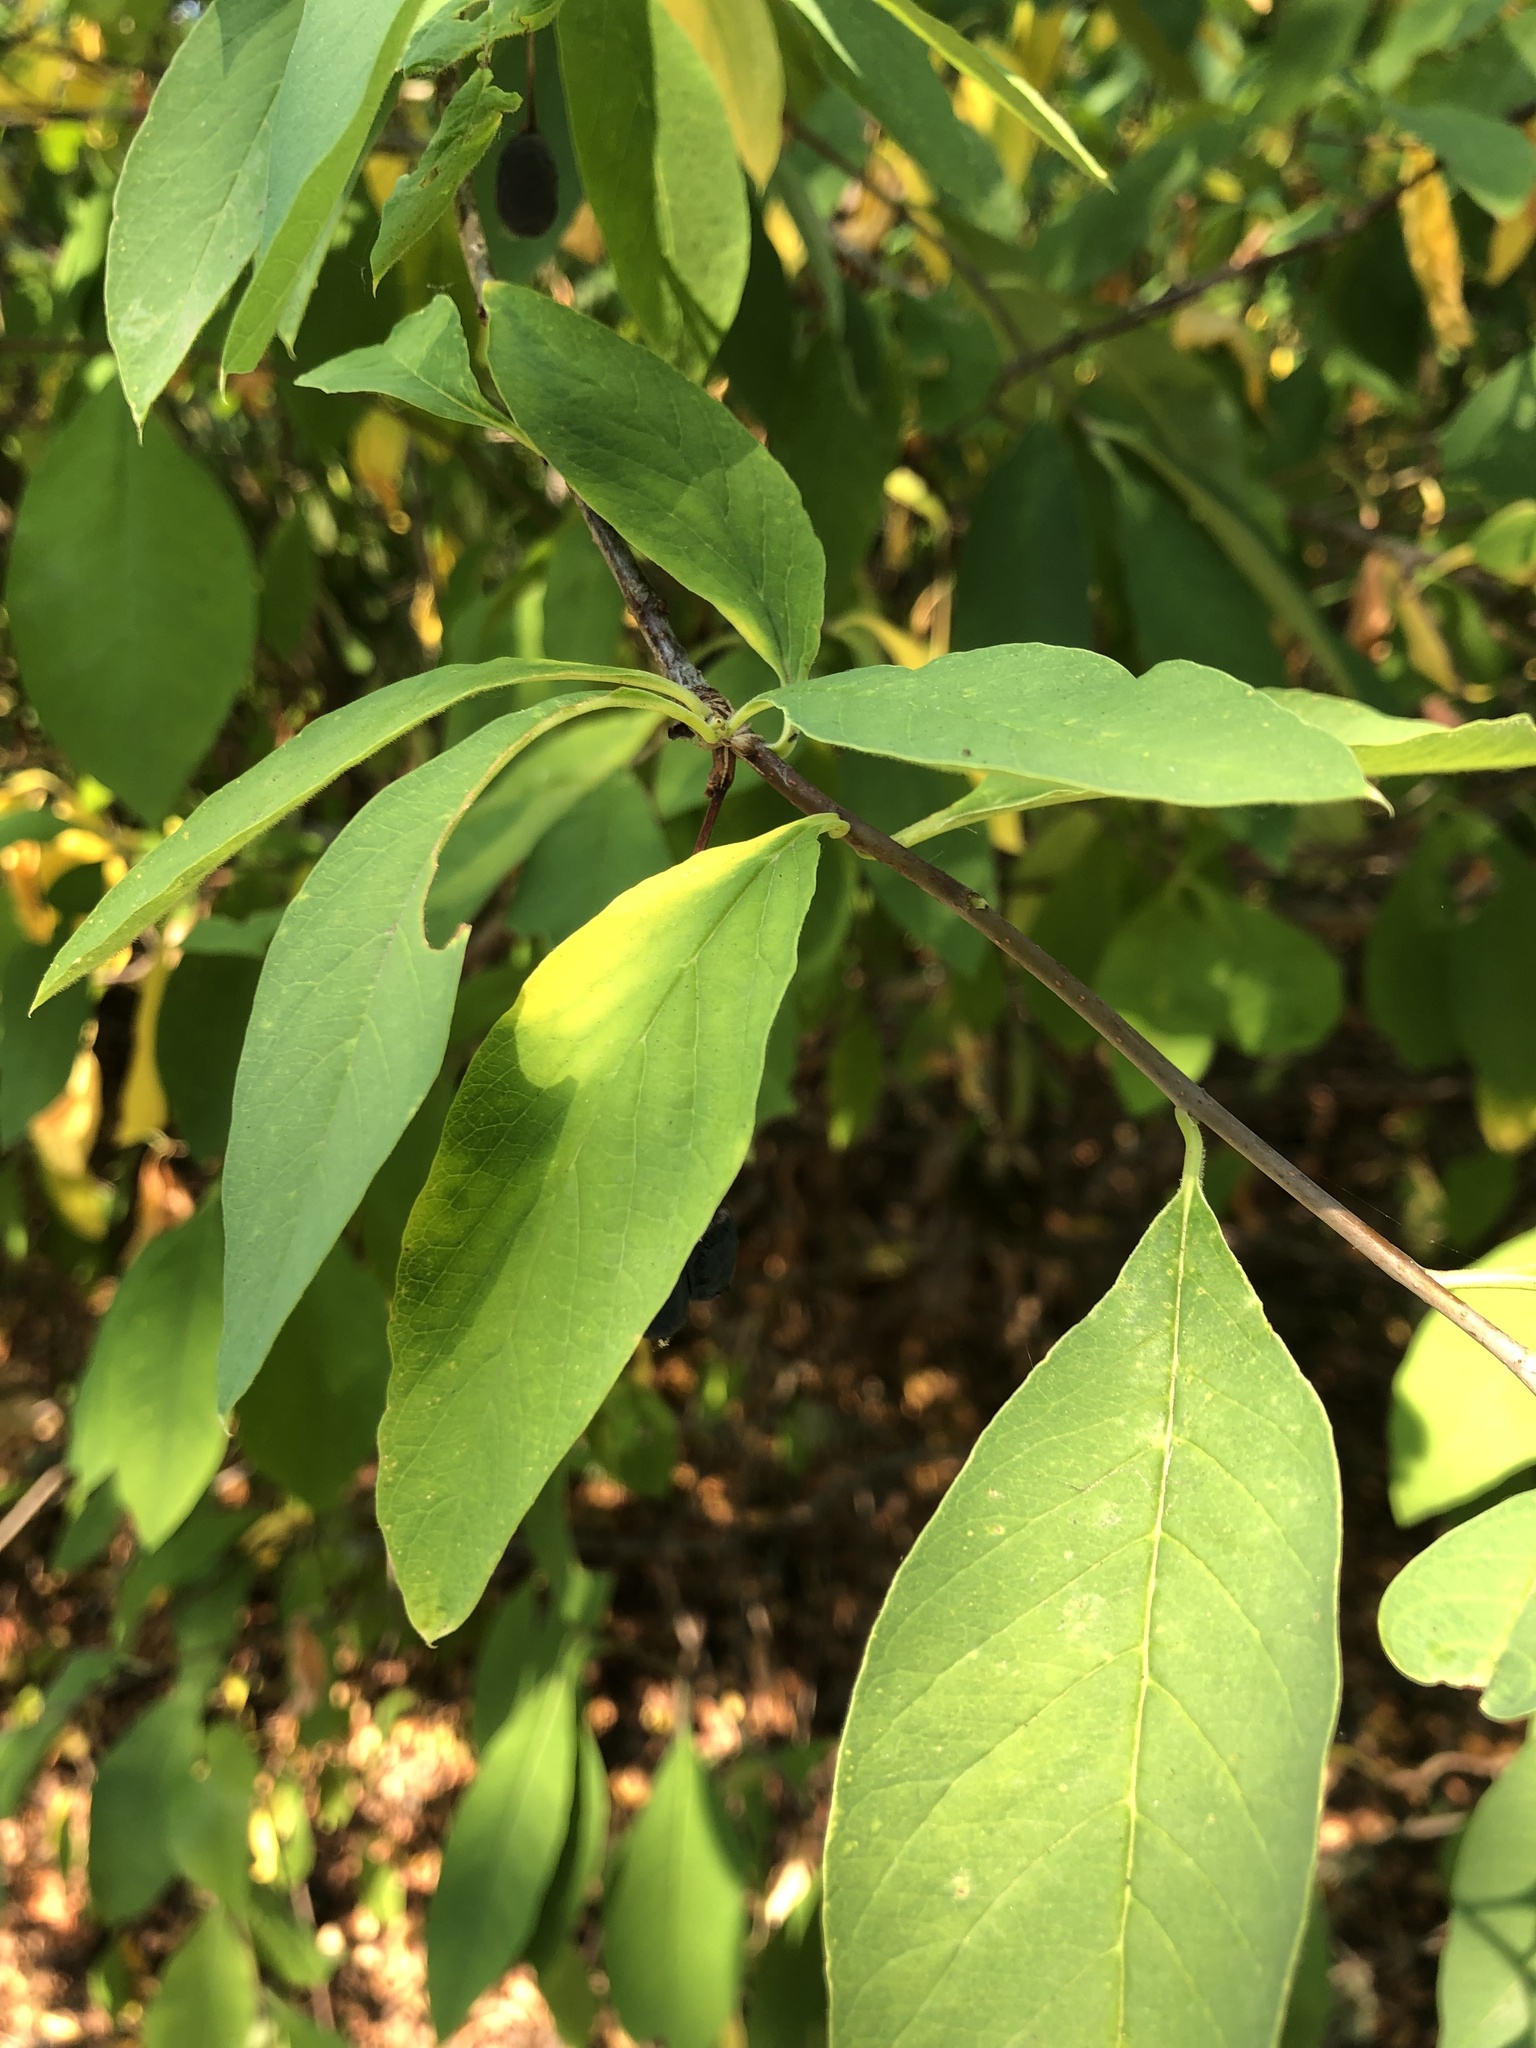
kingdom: Plantae
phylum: Tracheophyta
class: Magnoliopsida
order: Rosales
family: Rosaceae
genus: Oemleria
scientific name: Oemleria cerasiformis
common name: Osoberry
